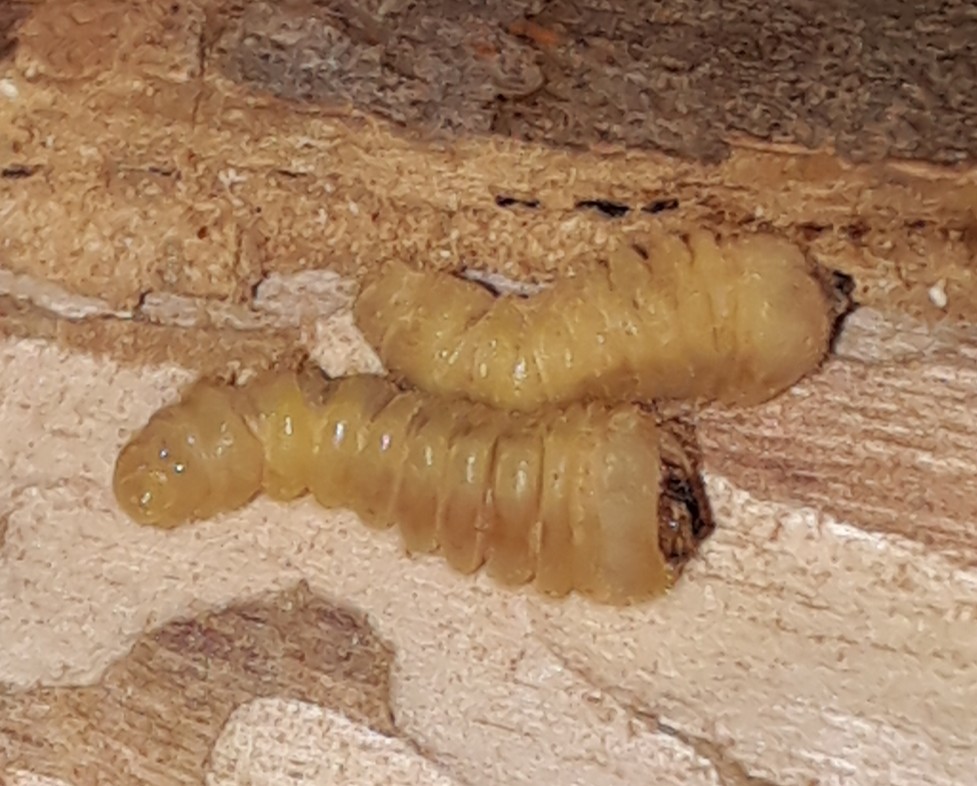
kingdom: Animalia
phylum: Arthropoda
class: Insecta
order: Coleoptera
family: Cerambycidae
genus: Phoracantha
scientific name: Phoracantha
